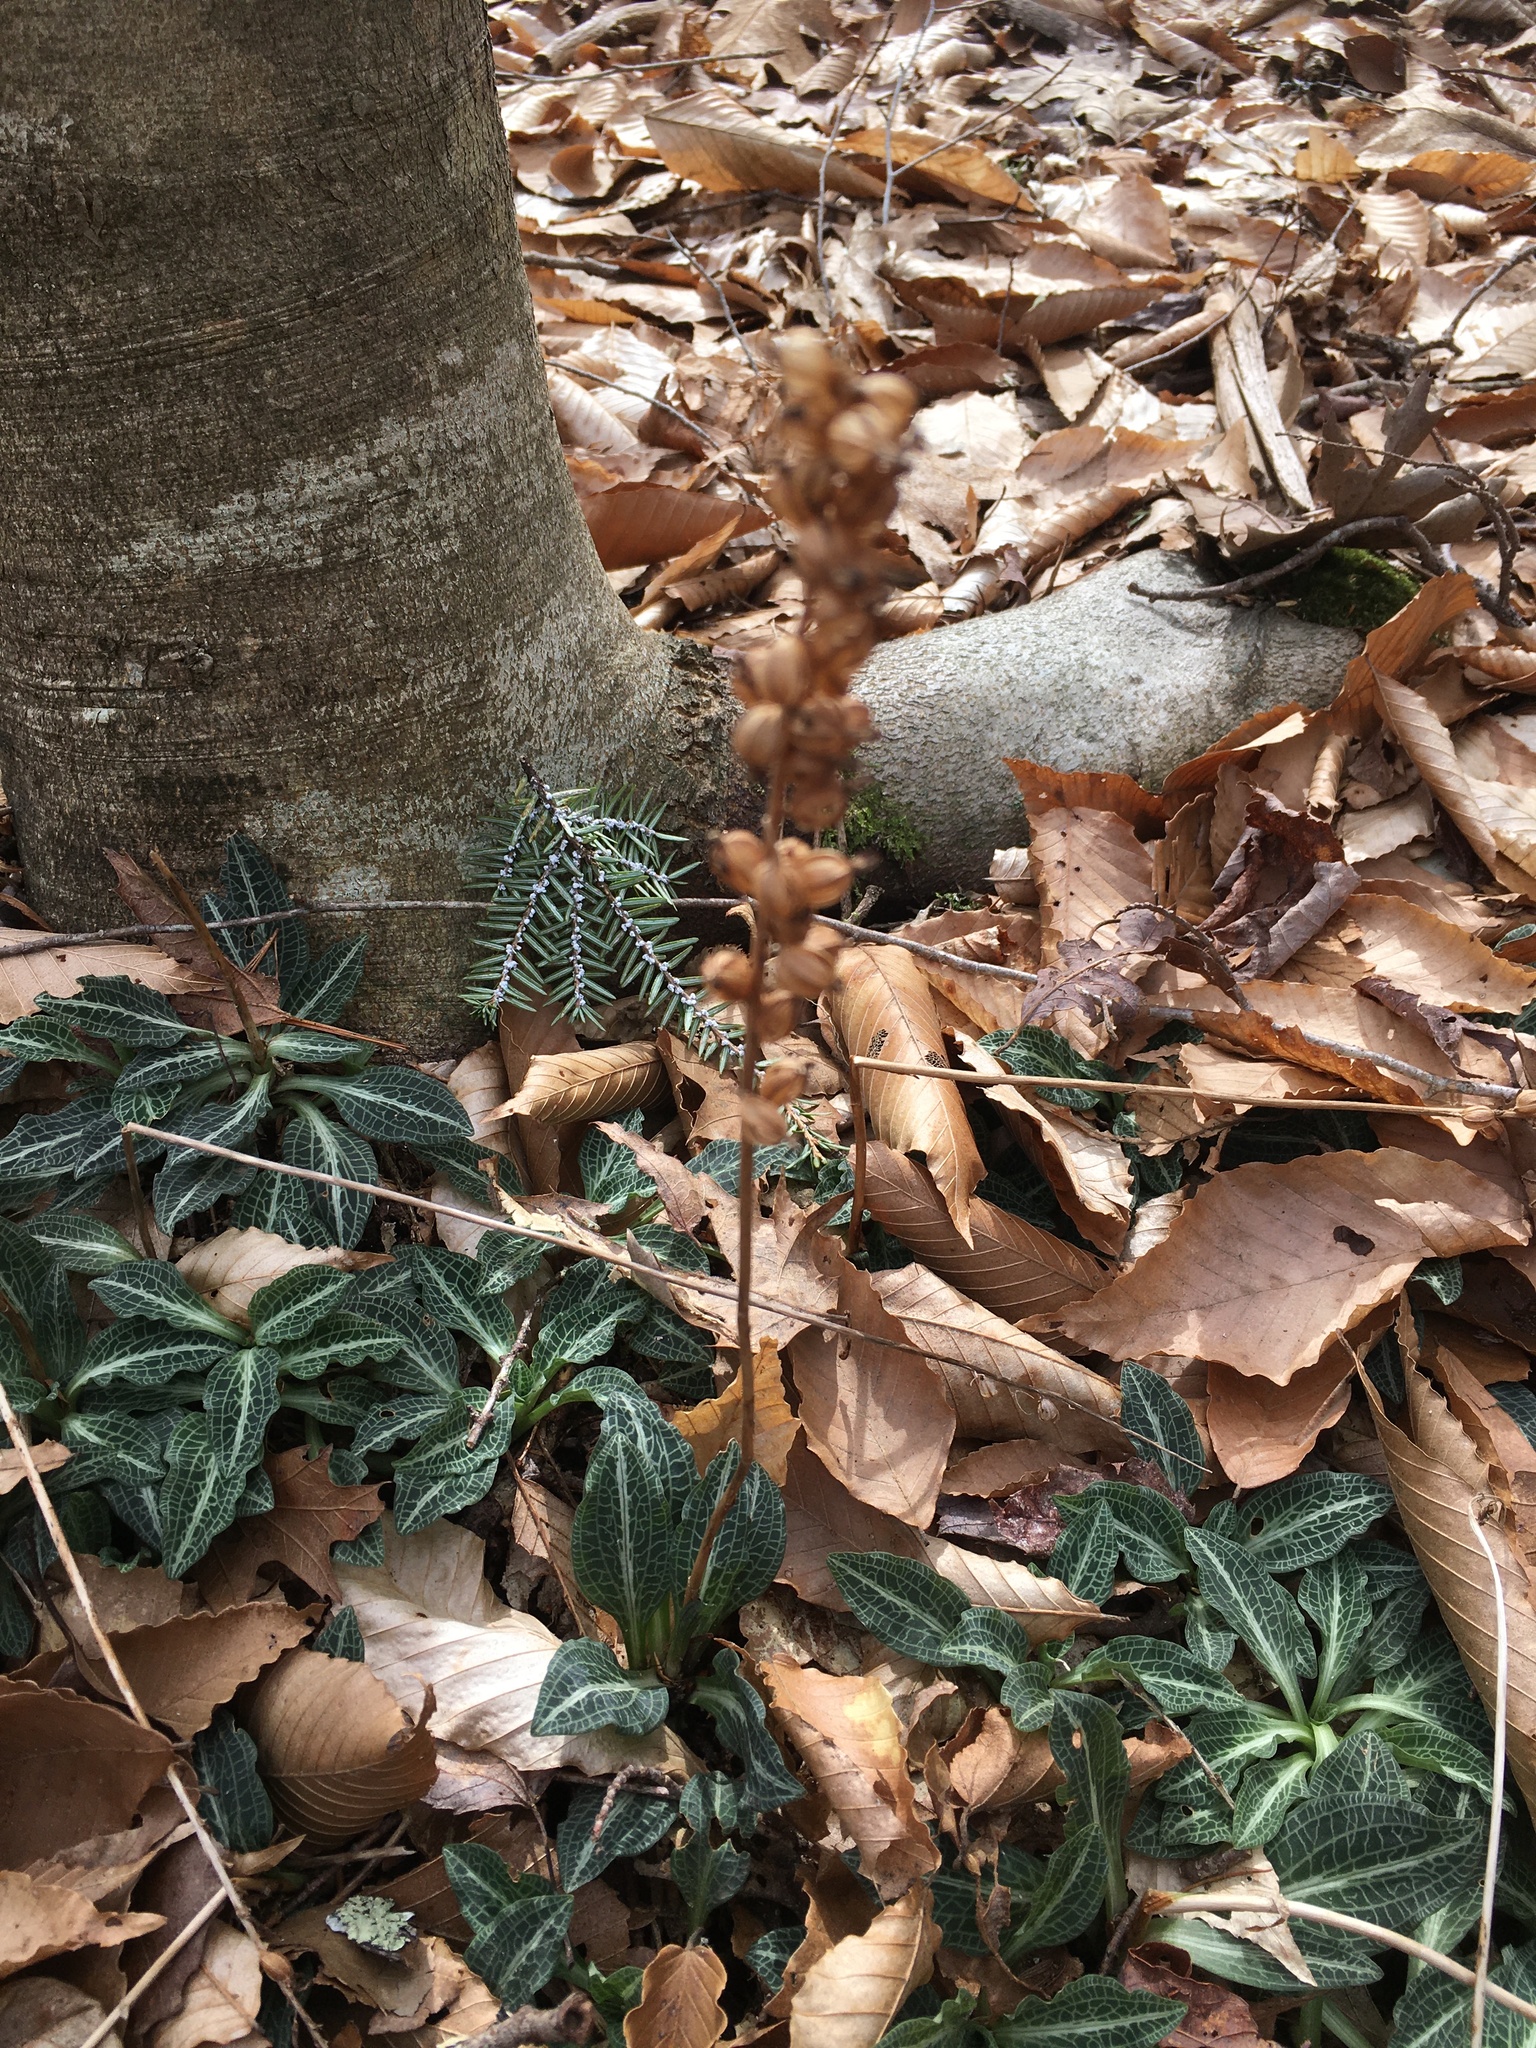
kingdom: Plantae
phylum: Tracheophyta
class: Liliopsida
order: Asparagales
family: Orchidaceae
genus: Goodyera
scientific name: Goodyera pubescens
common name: Downy rattlesnake-plantain
